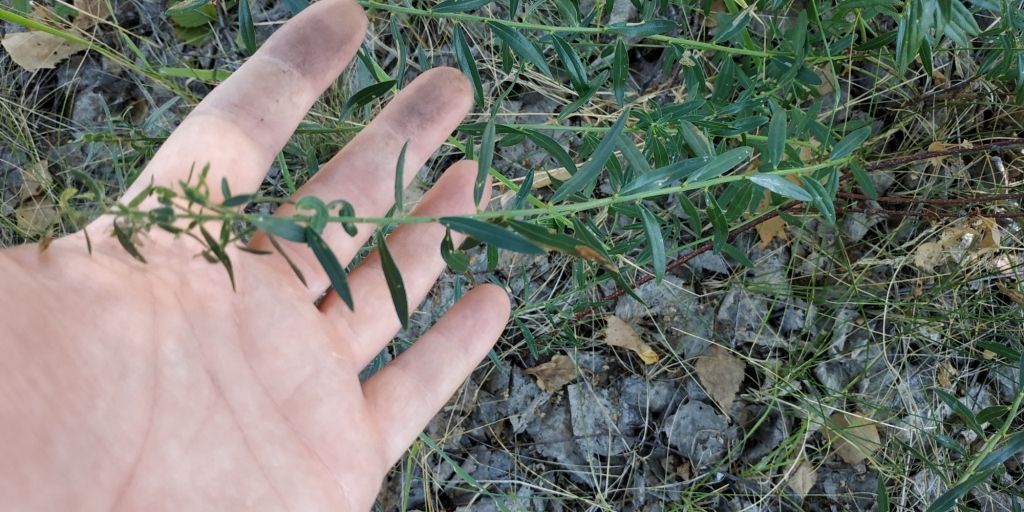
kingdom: Plantae
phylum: Tracheophyta
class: Magnoliopsida
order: Fabales
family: Fabaceae
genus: Genista
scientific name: Genista tinctoria
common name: Dyer's greenweed
